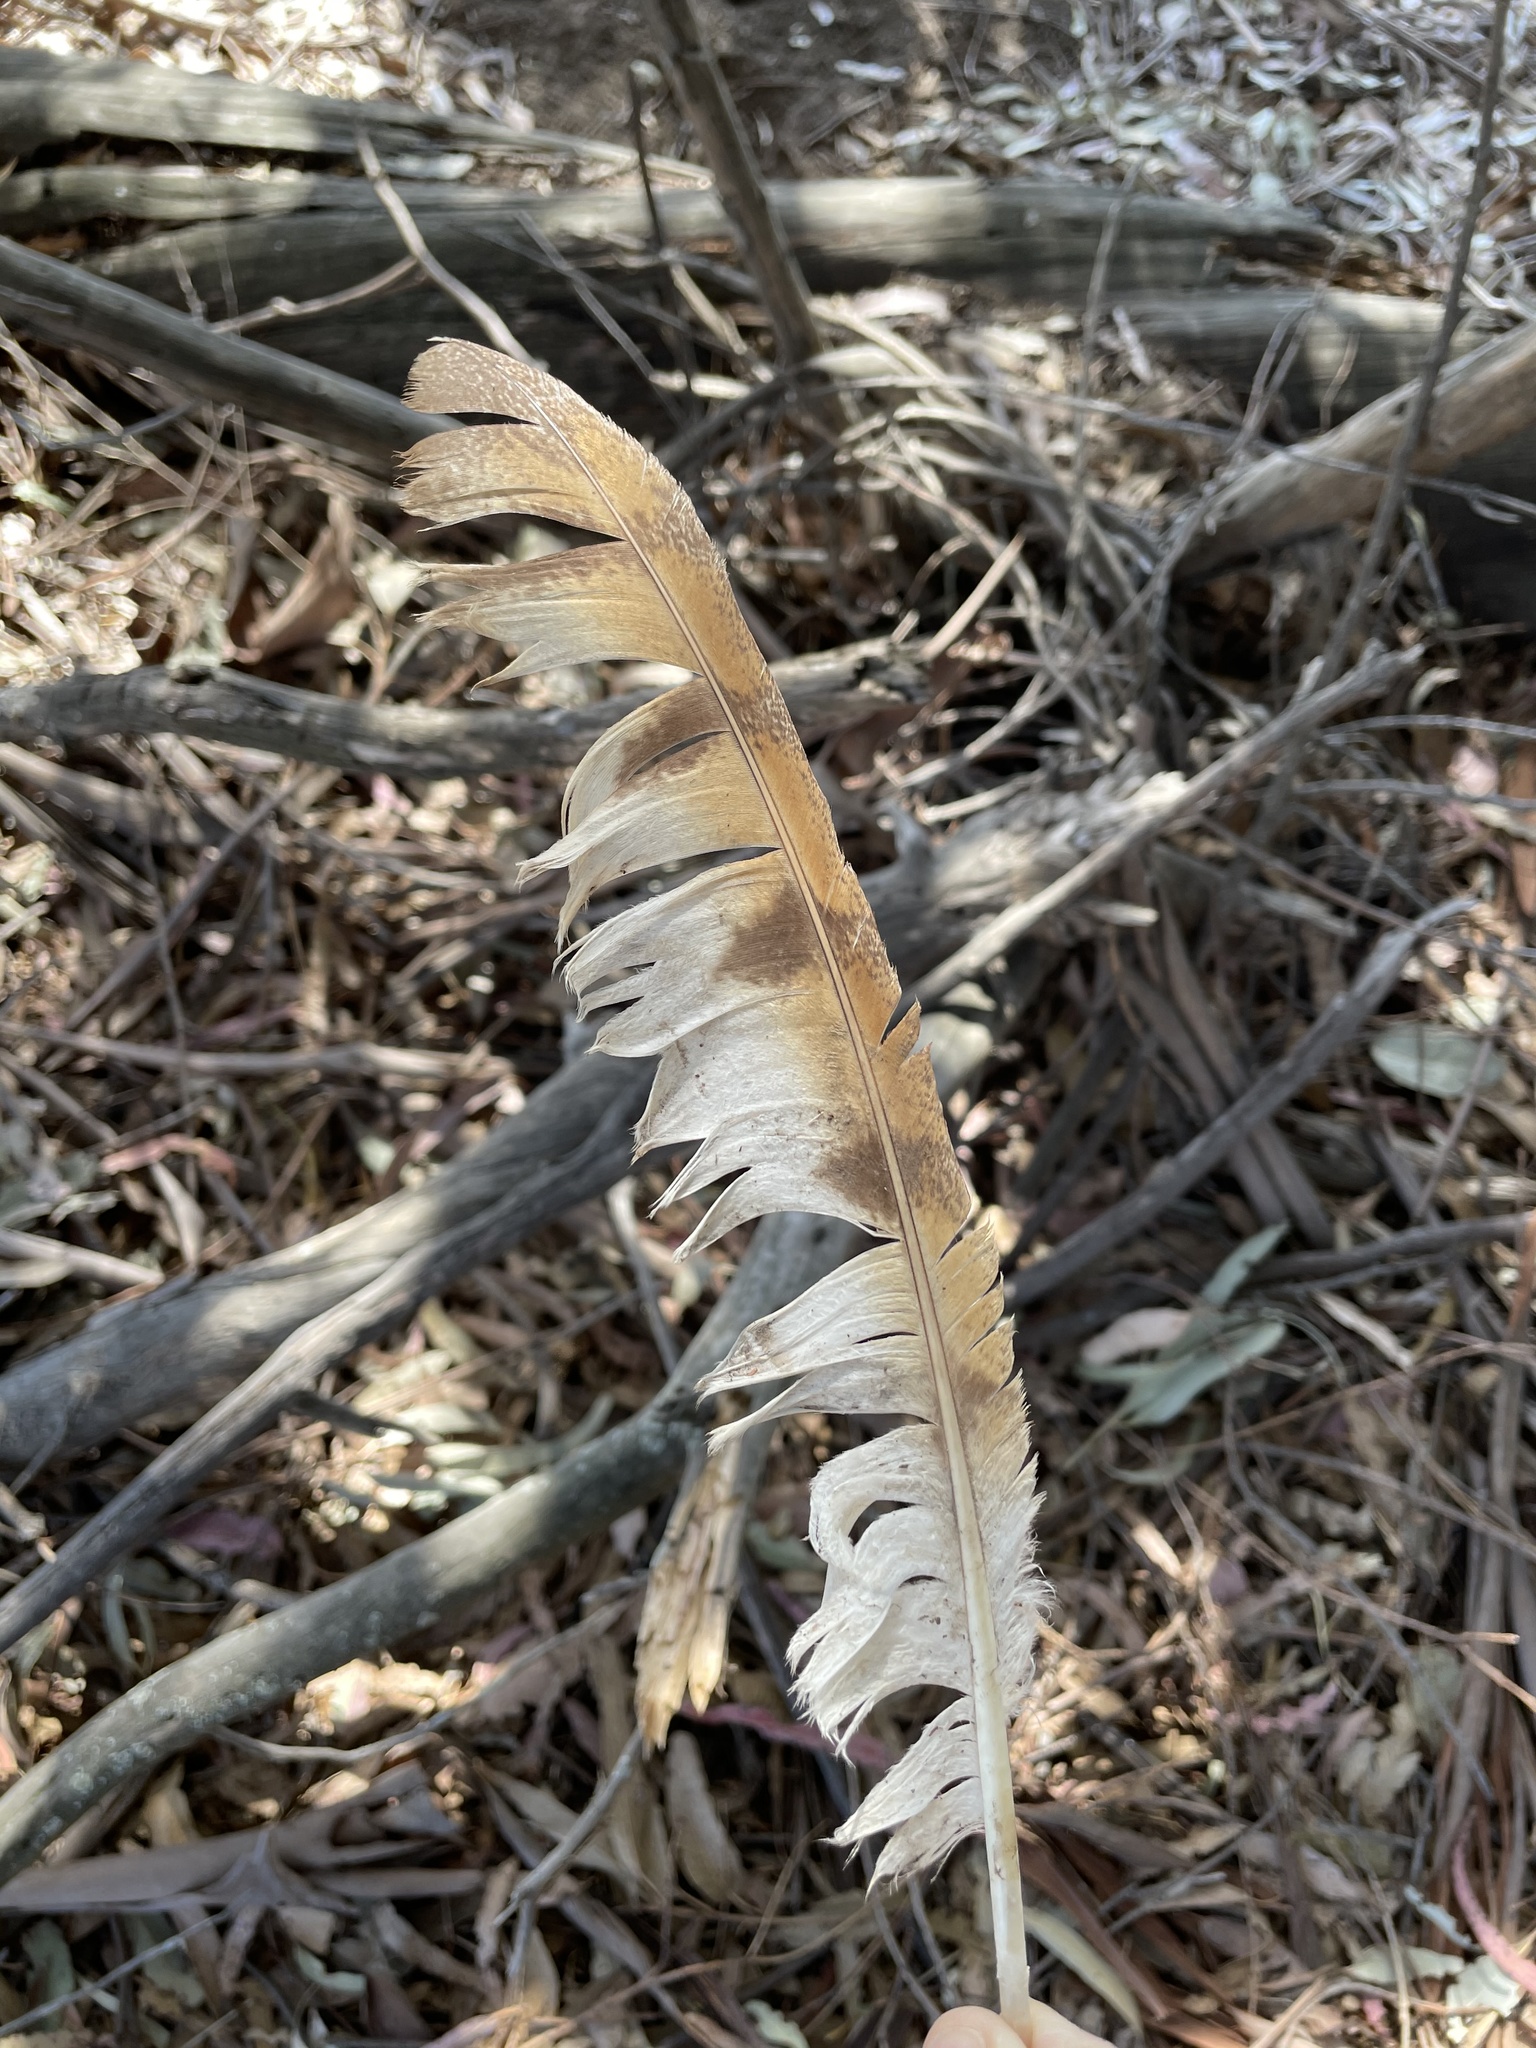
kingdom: Animalia
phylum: Chordata
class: Aves
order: Strigiformes
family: Tytonidae
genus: Tyto
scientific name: Tyto alba
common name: Barn owl
